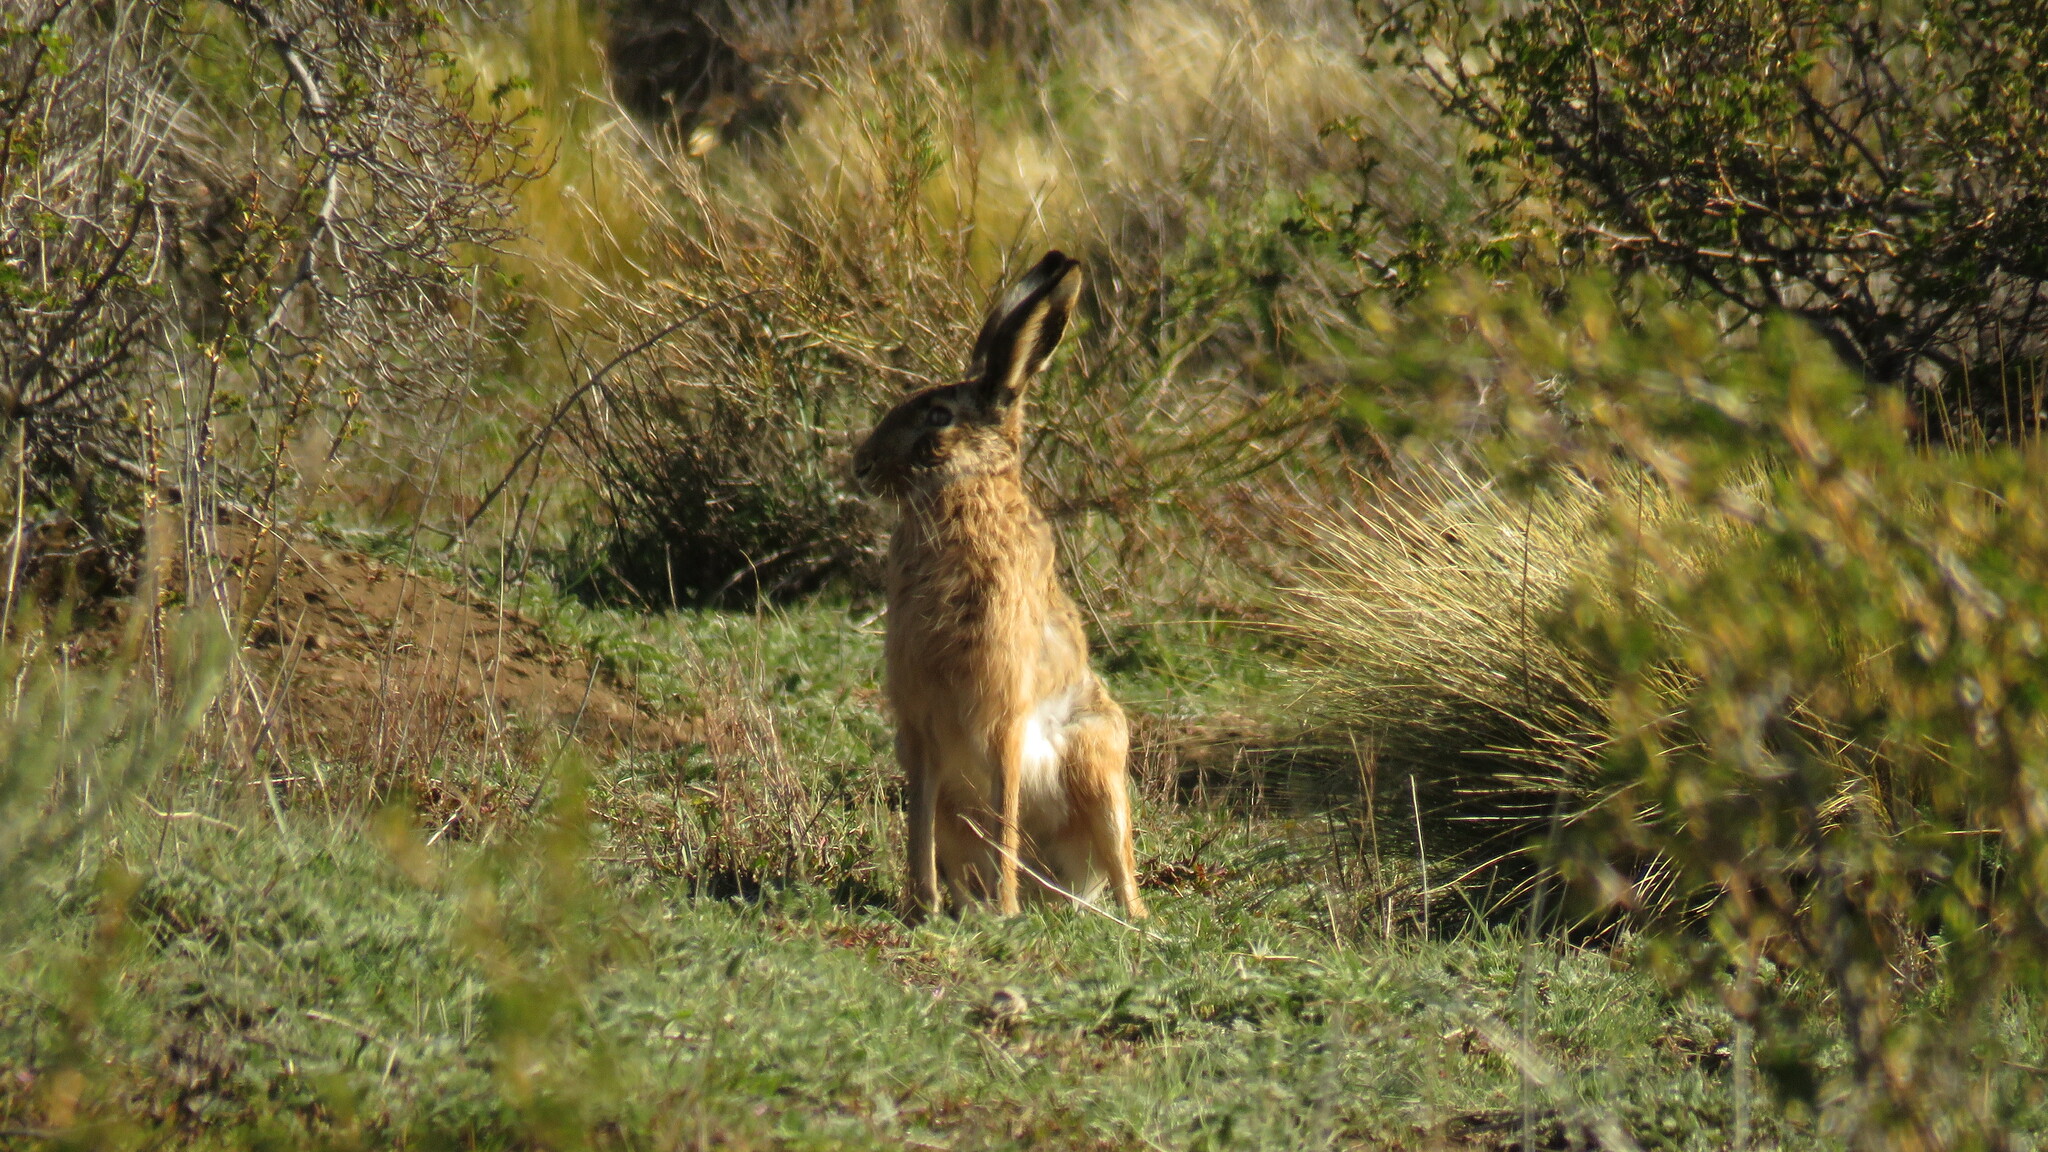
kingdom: Animalia
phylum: Chordata
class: Mammalia
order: Lagomorpha
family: Leporidae
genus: Lepus
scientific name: Lepus europaeus
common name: European hare
